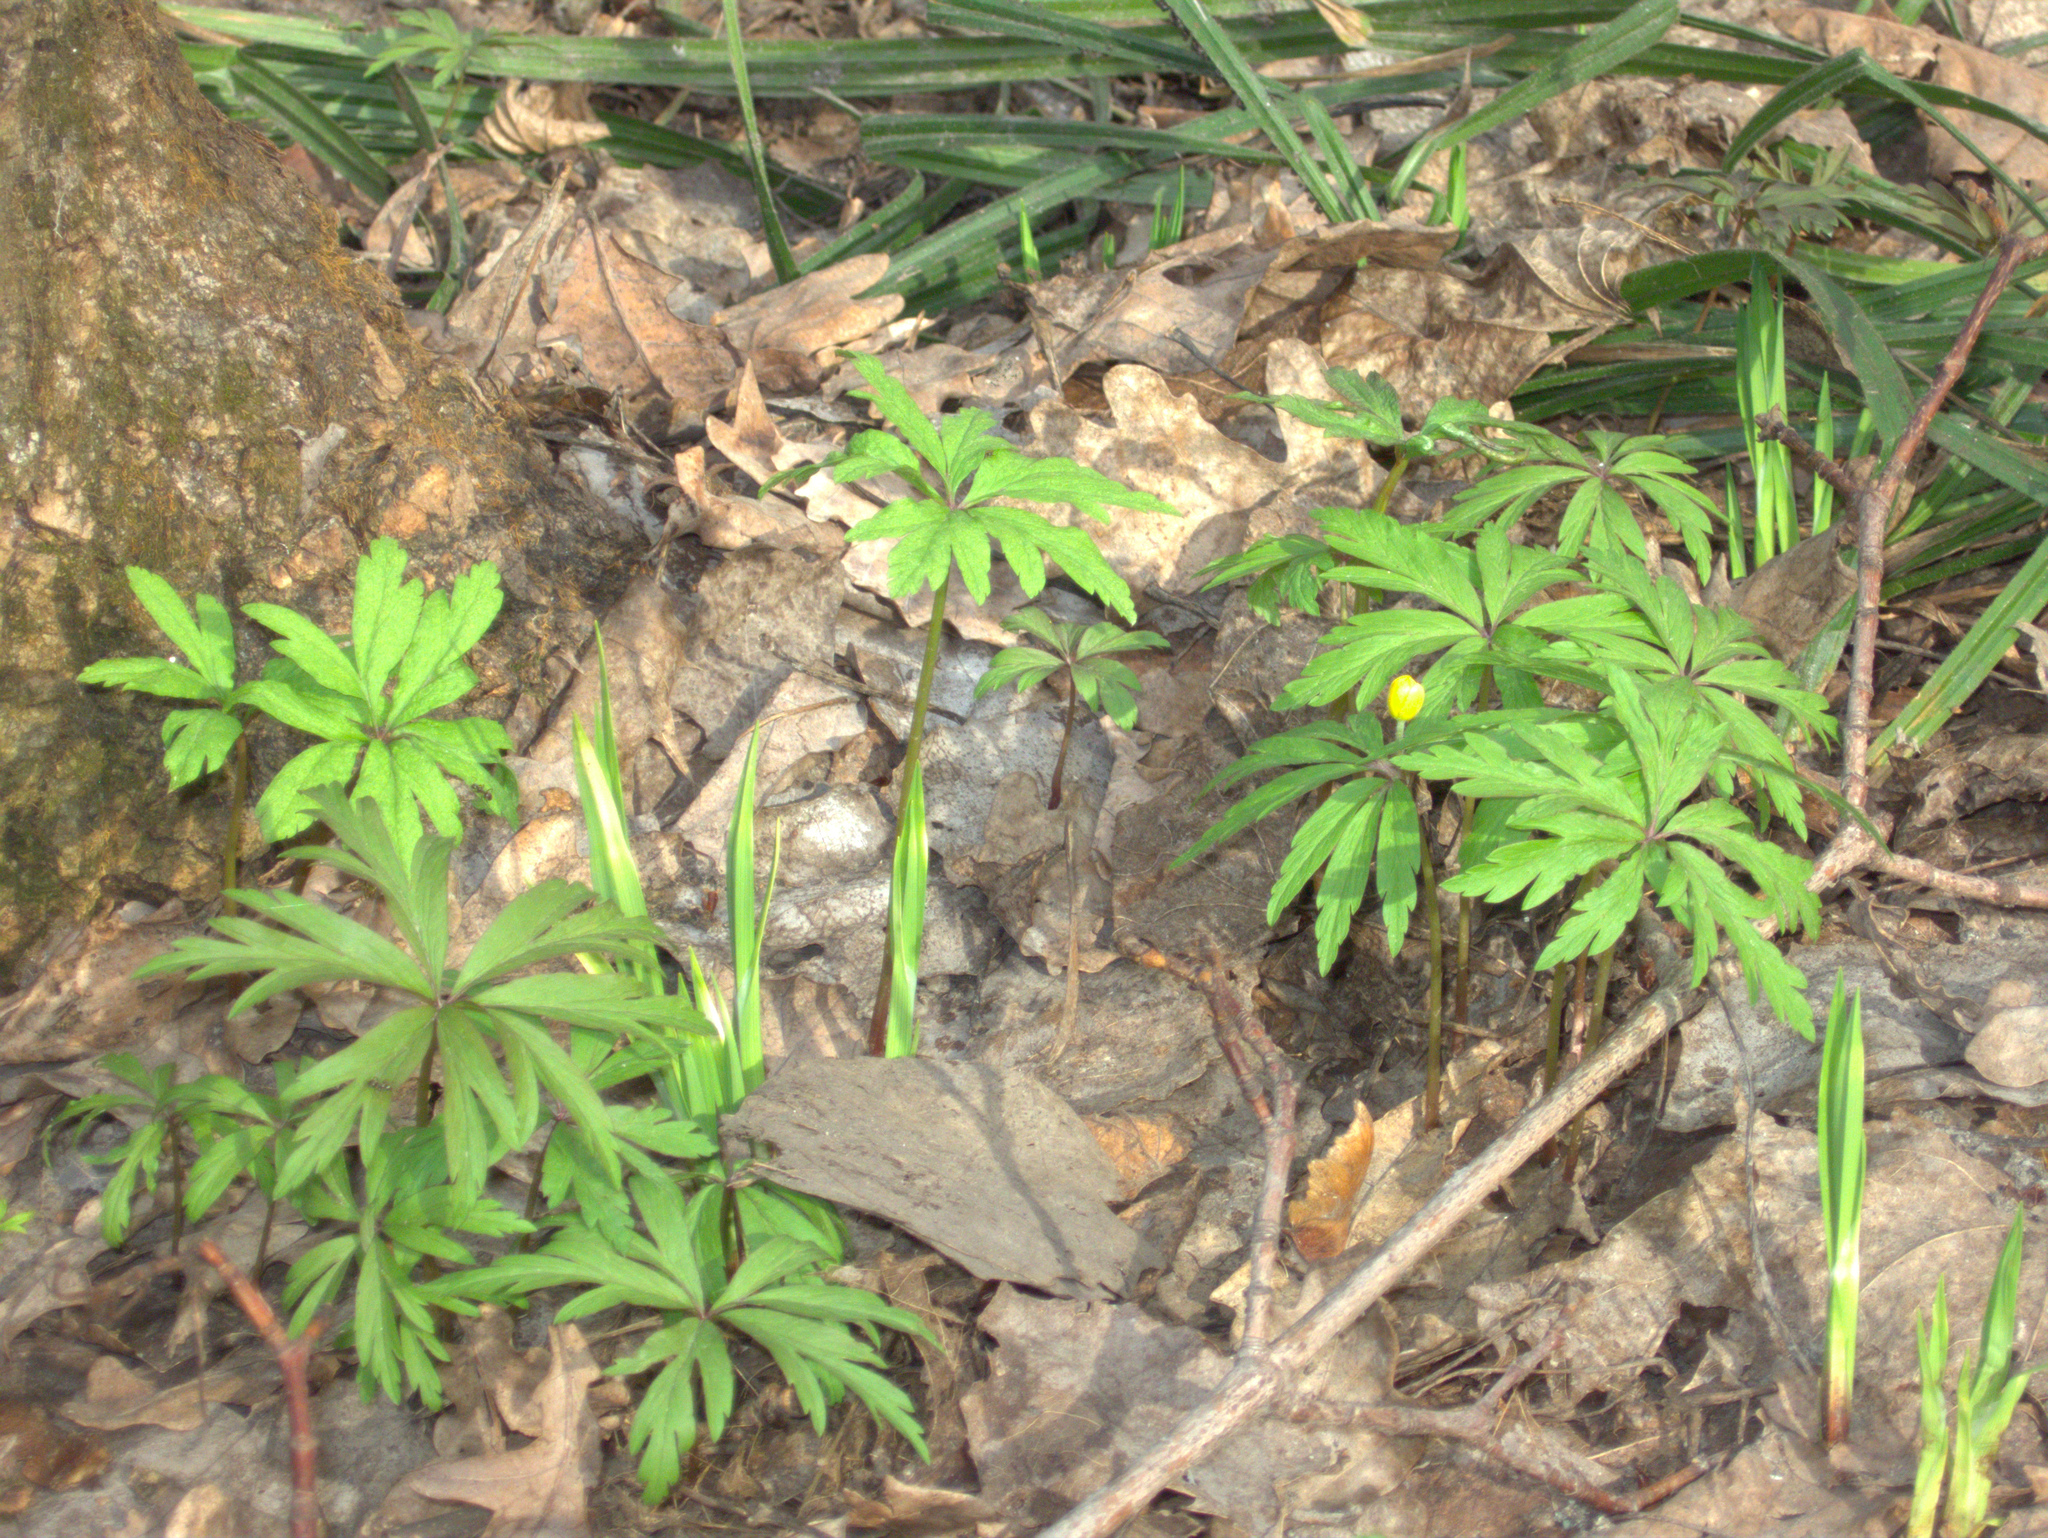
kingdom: Plantae
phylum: Tracheophyta
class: Magnoliopsida
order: Ranunculales
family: Ranunculaceae
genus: Anemone
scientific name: Anemone ranunculoides
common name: Yellow anemone
